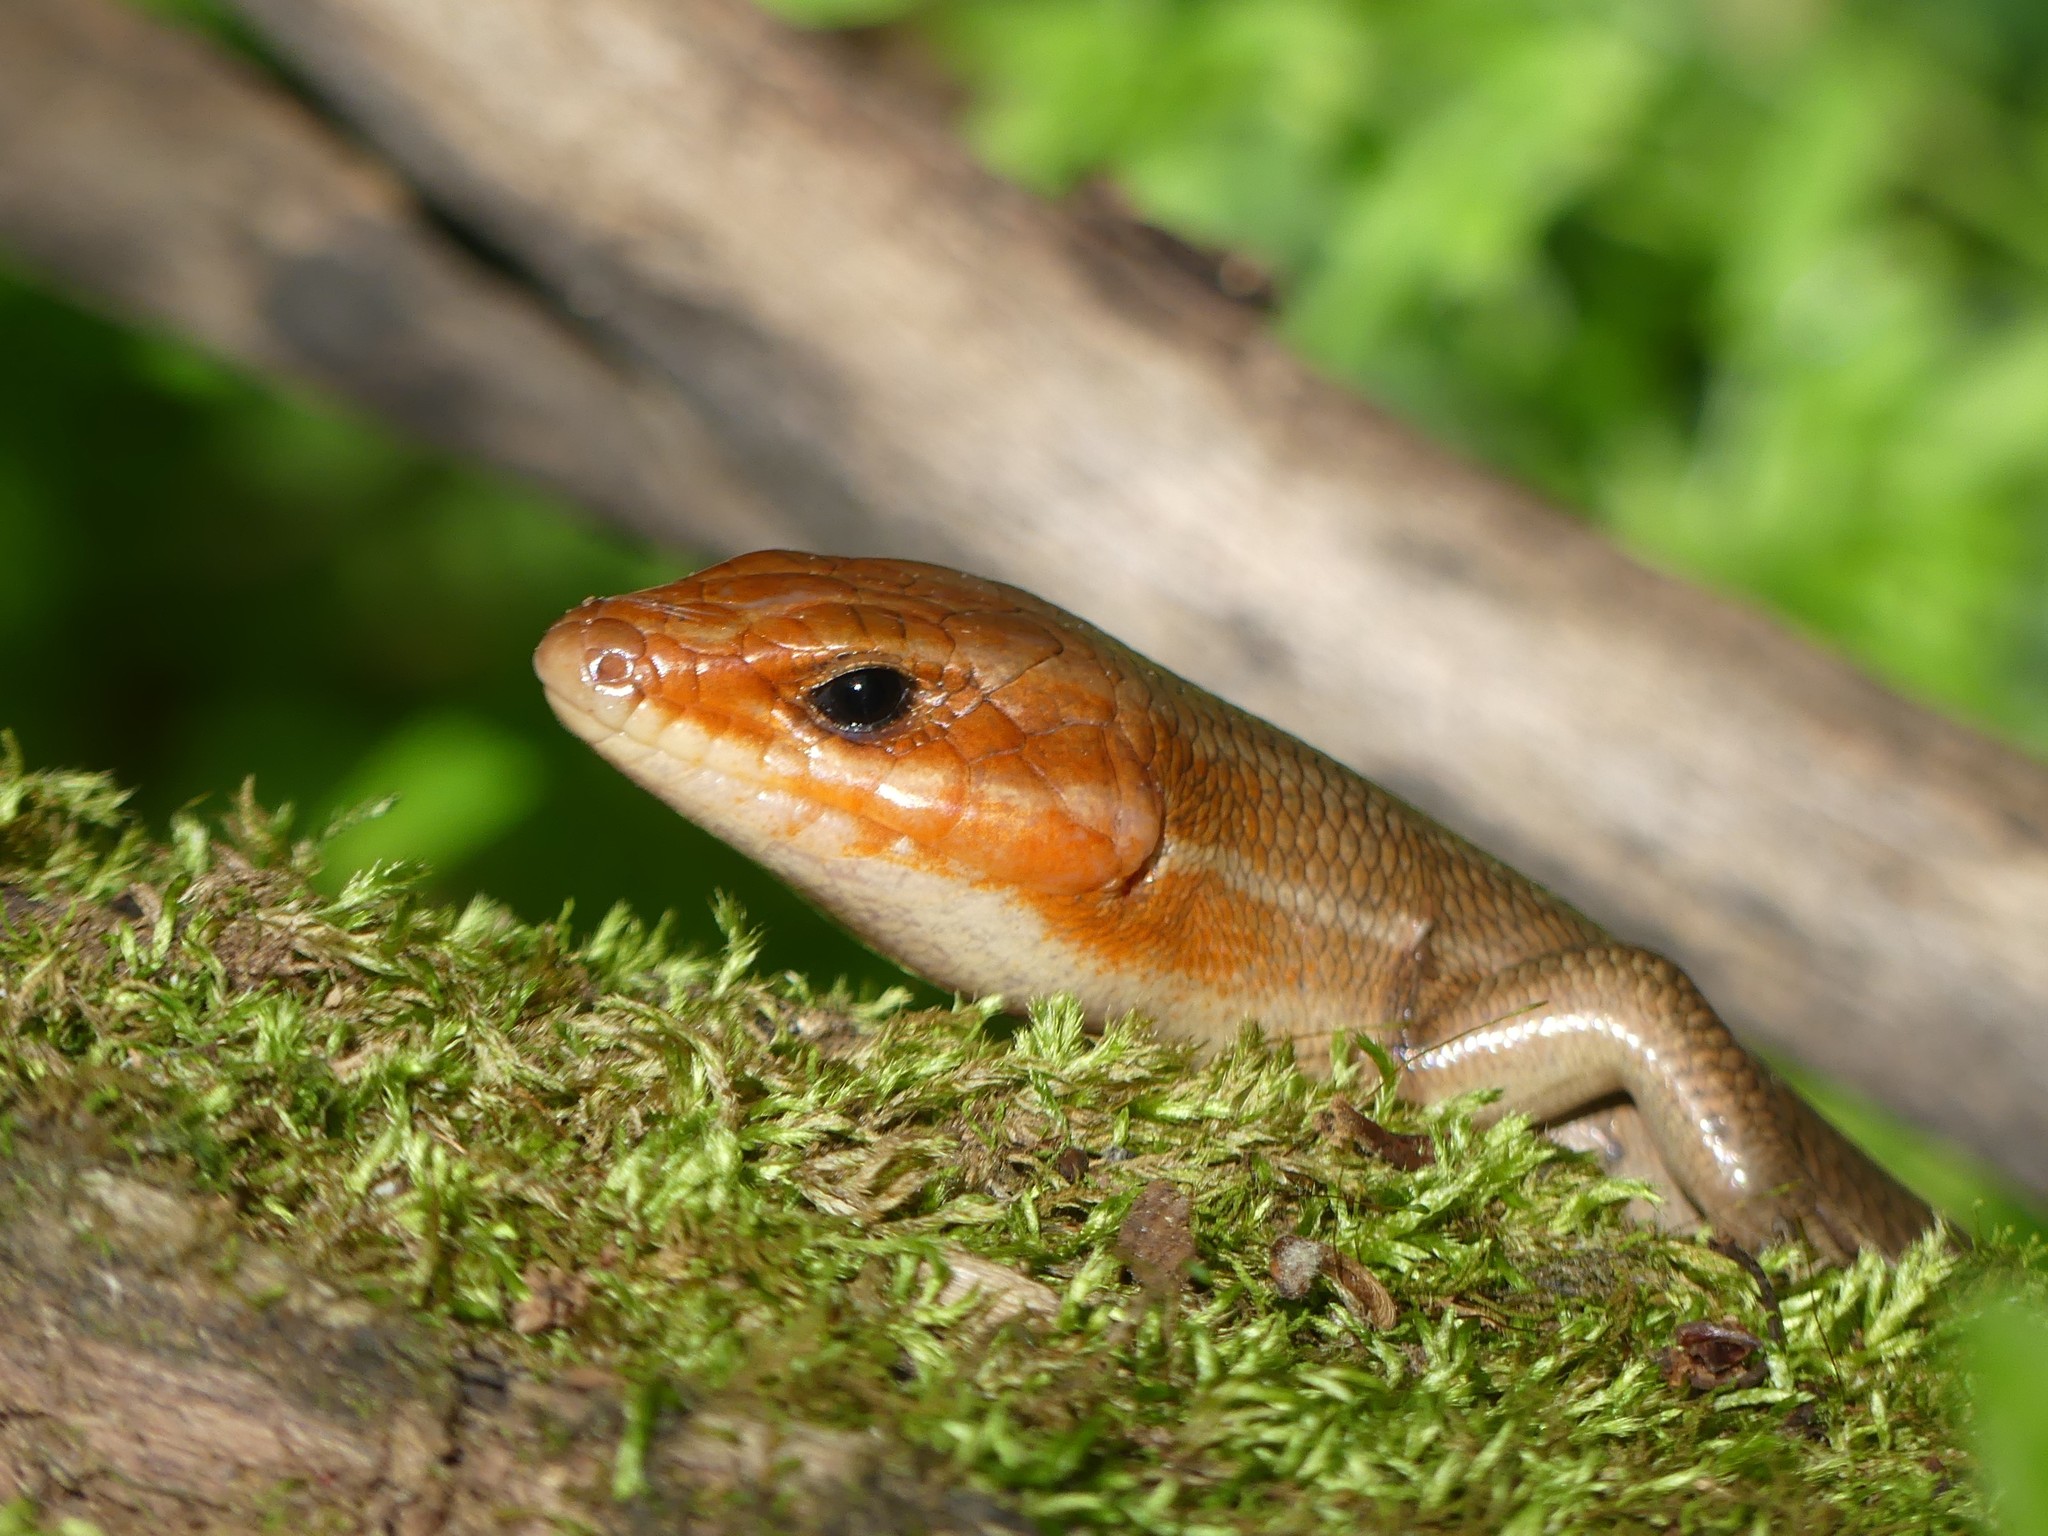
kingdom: Animalia
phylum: Chordata
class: Squamata
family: Scincidae
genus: Plestiodon
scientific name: Plestiodon laticeps
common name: Broadhead skink
